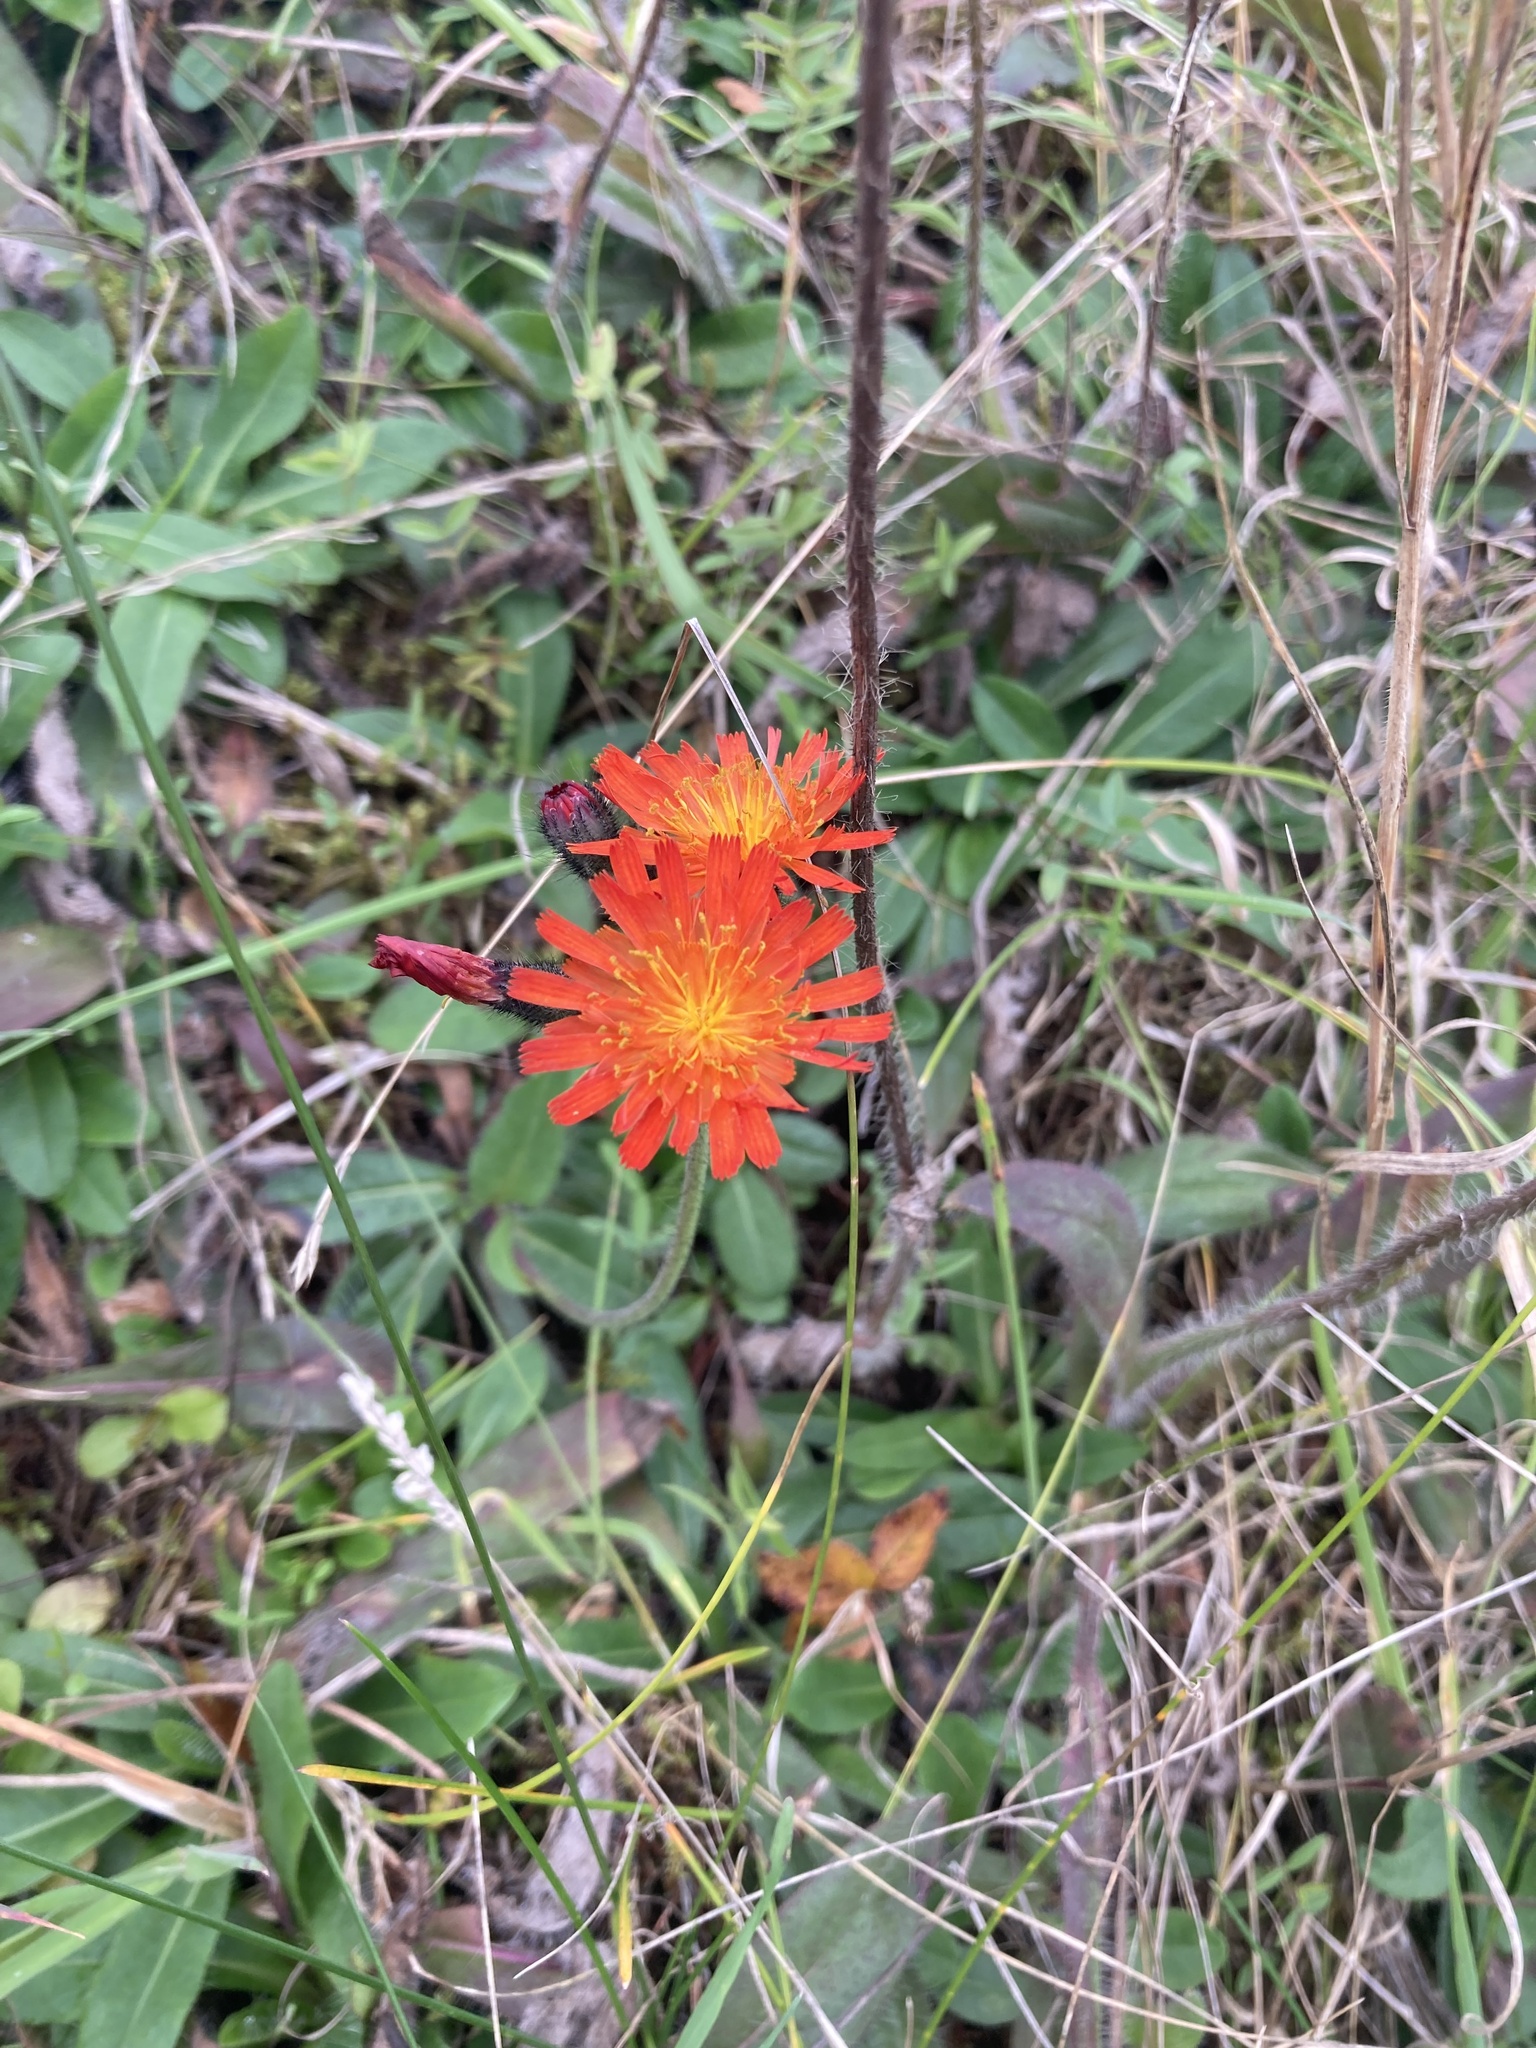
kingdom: Plantae
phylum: Tracheophyta
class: Magnoliopsida
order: Asterales
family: Asteraceae
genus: Pilosella
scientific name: Pilosella aurantiaca
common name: Fox-and-cubs
